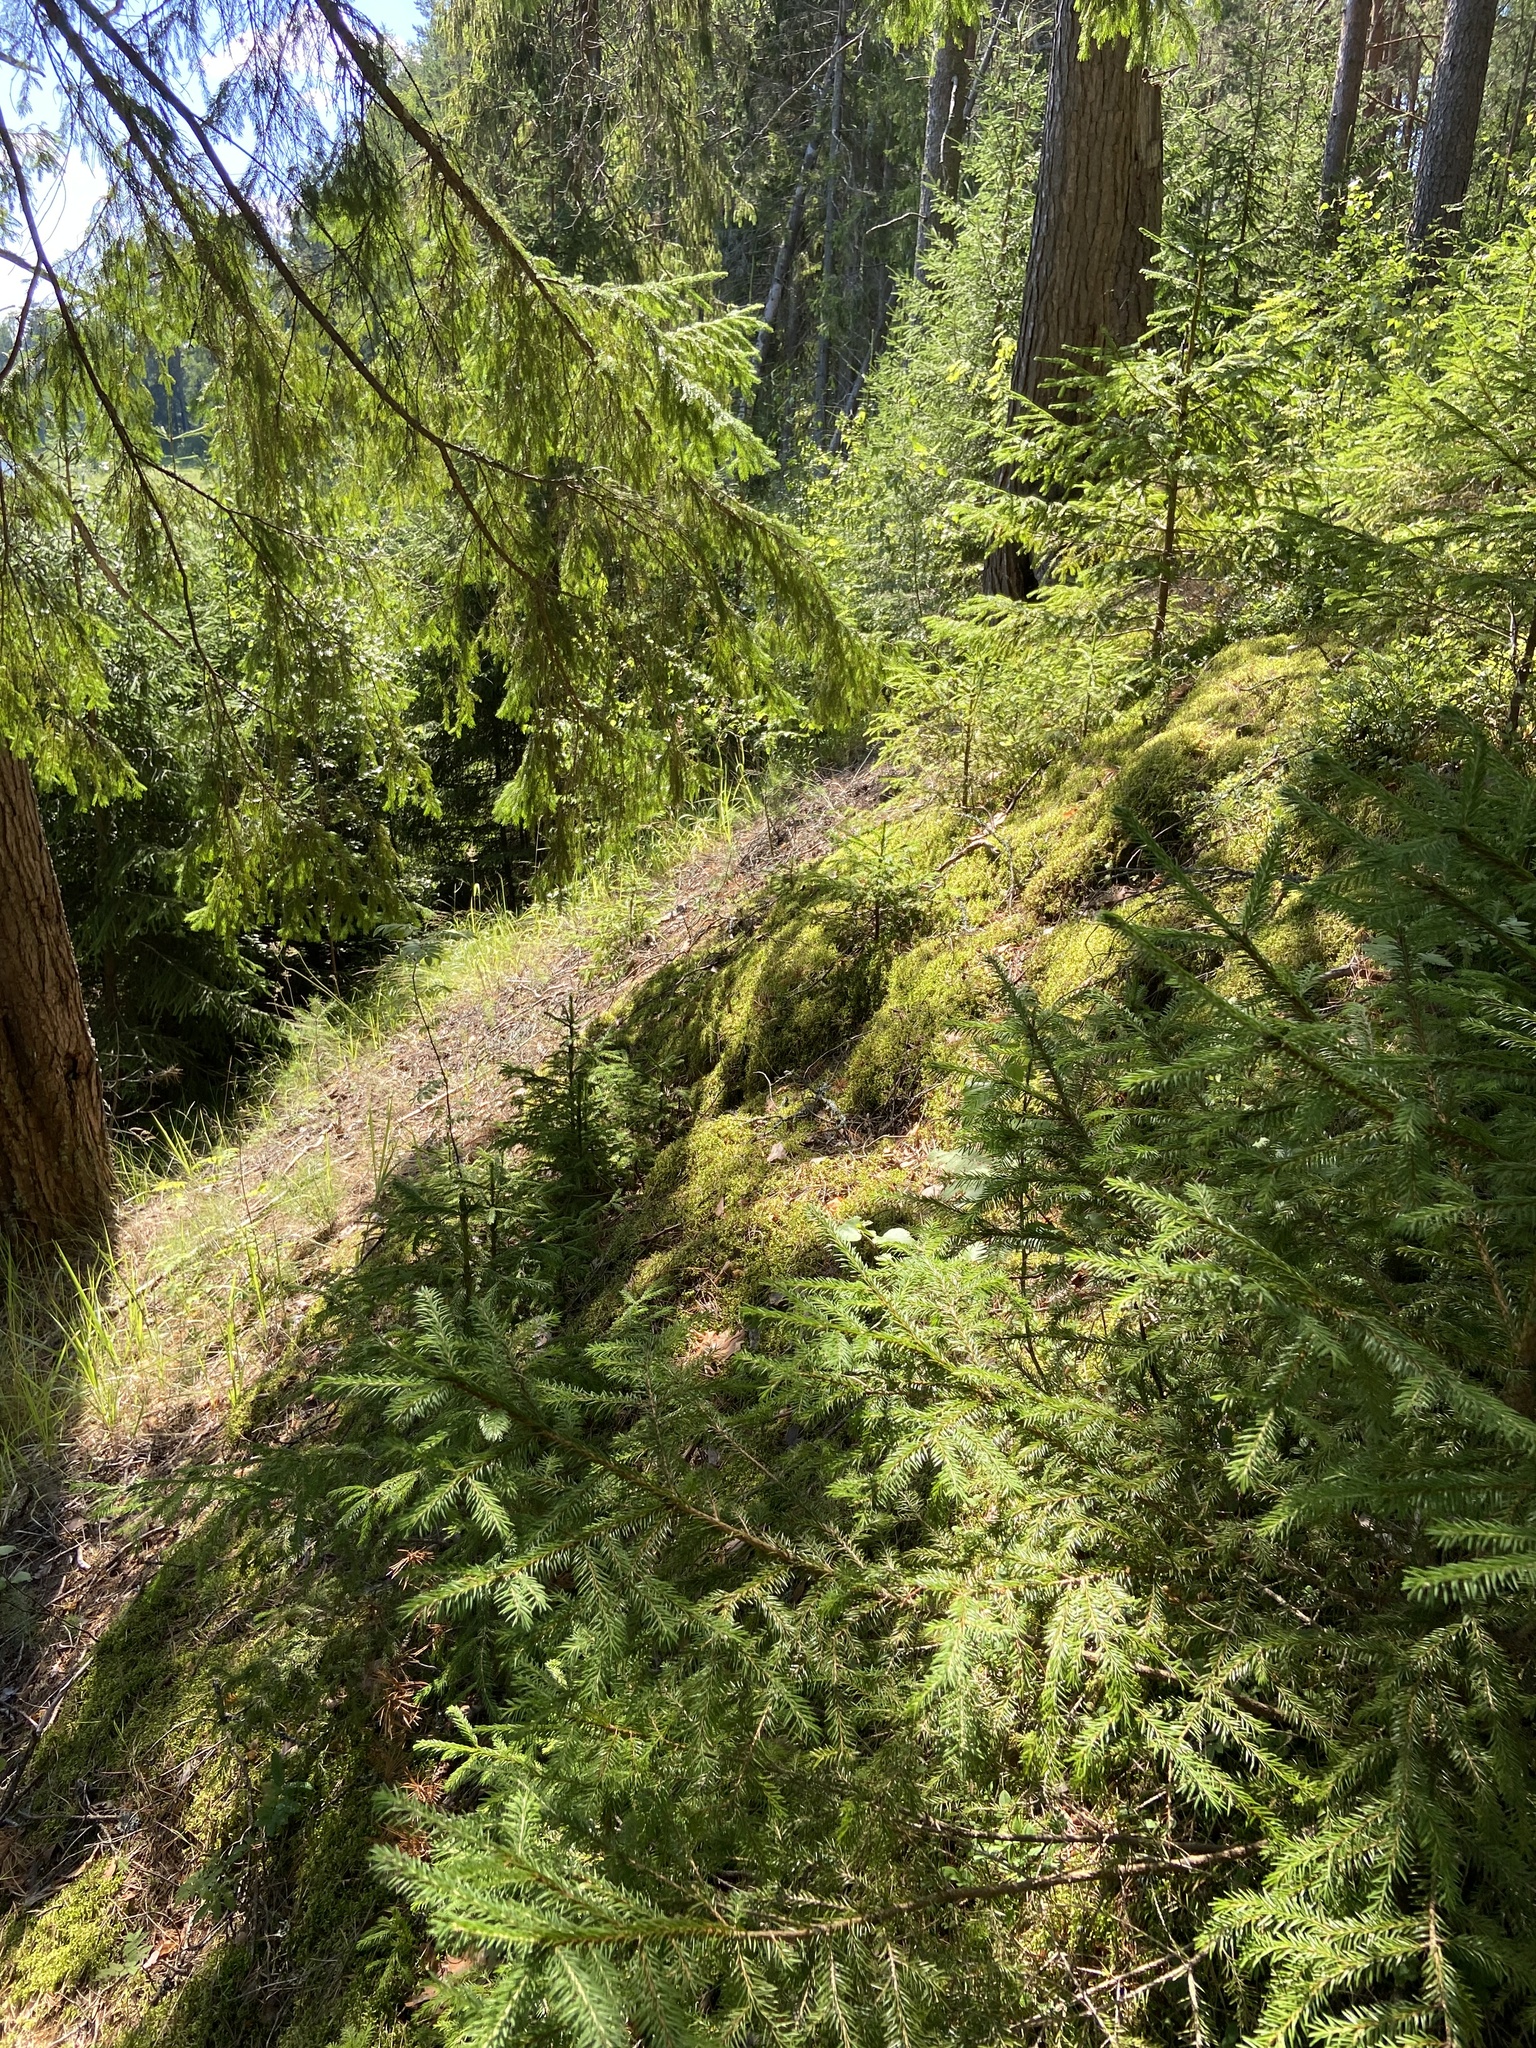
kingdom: Plantae
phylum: Tracheophyta
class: Pinopsida
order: Pinales
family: Pinaceae
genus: Picea
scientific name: Picea abies
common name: Norway spruce
